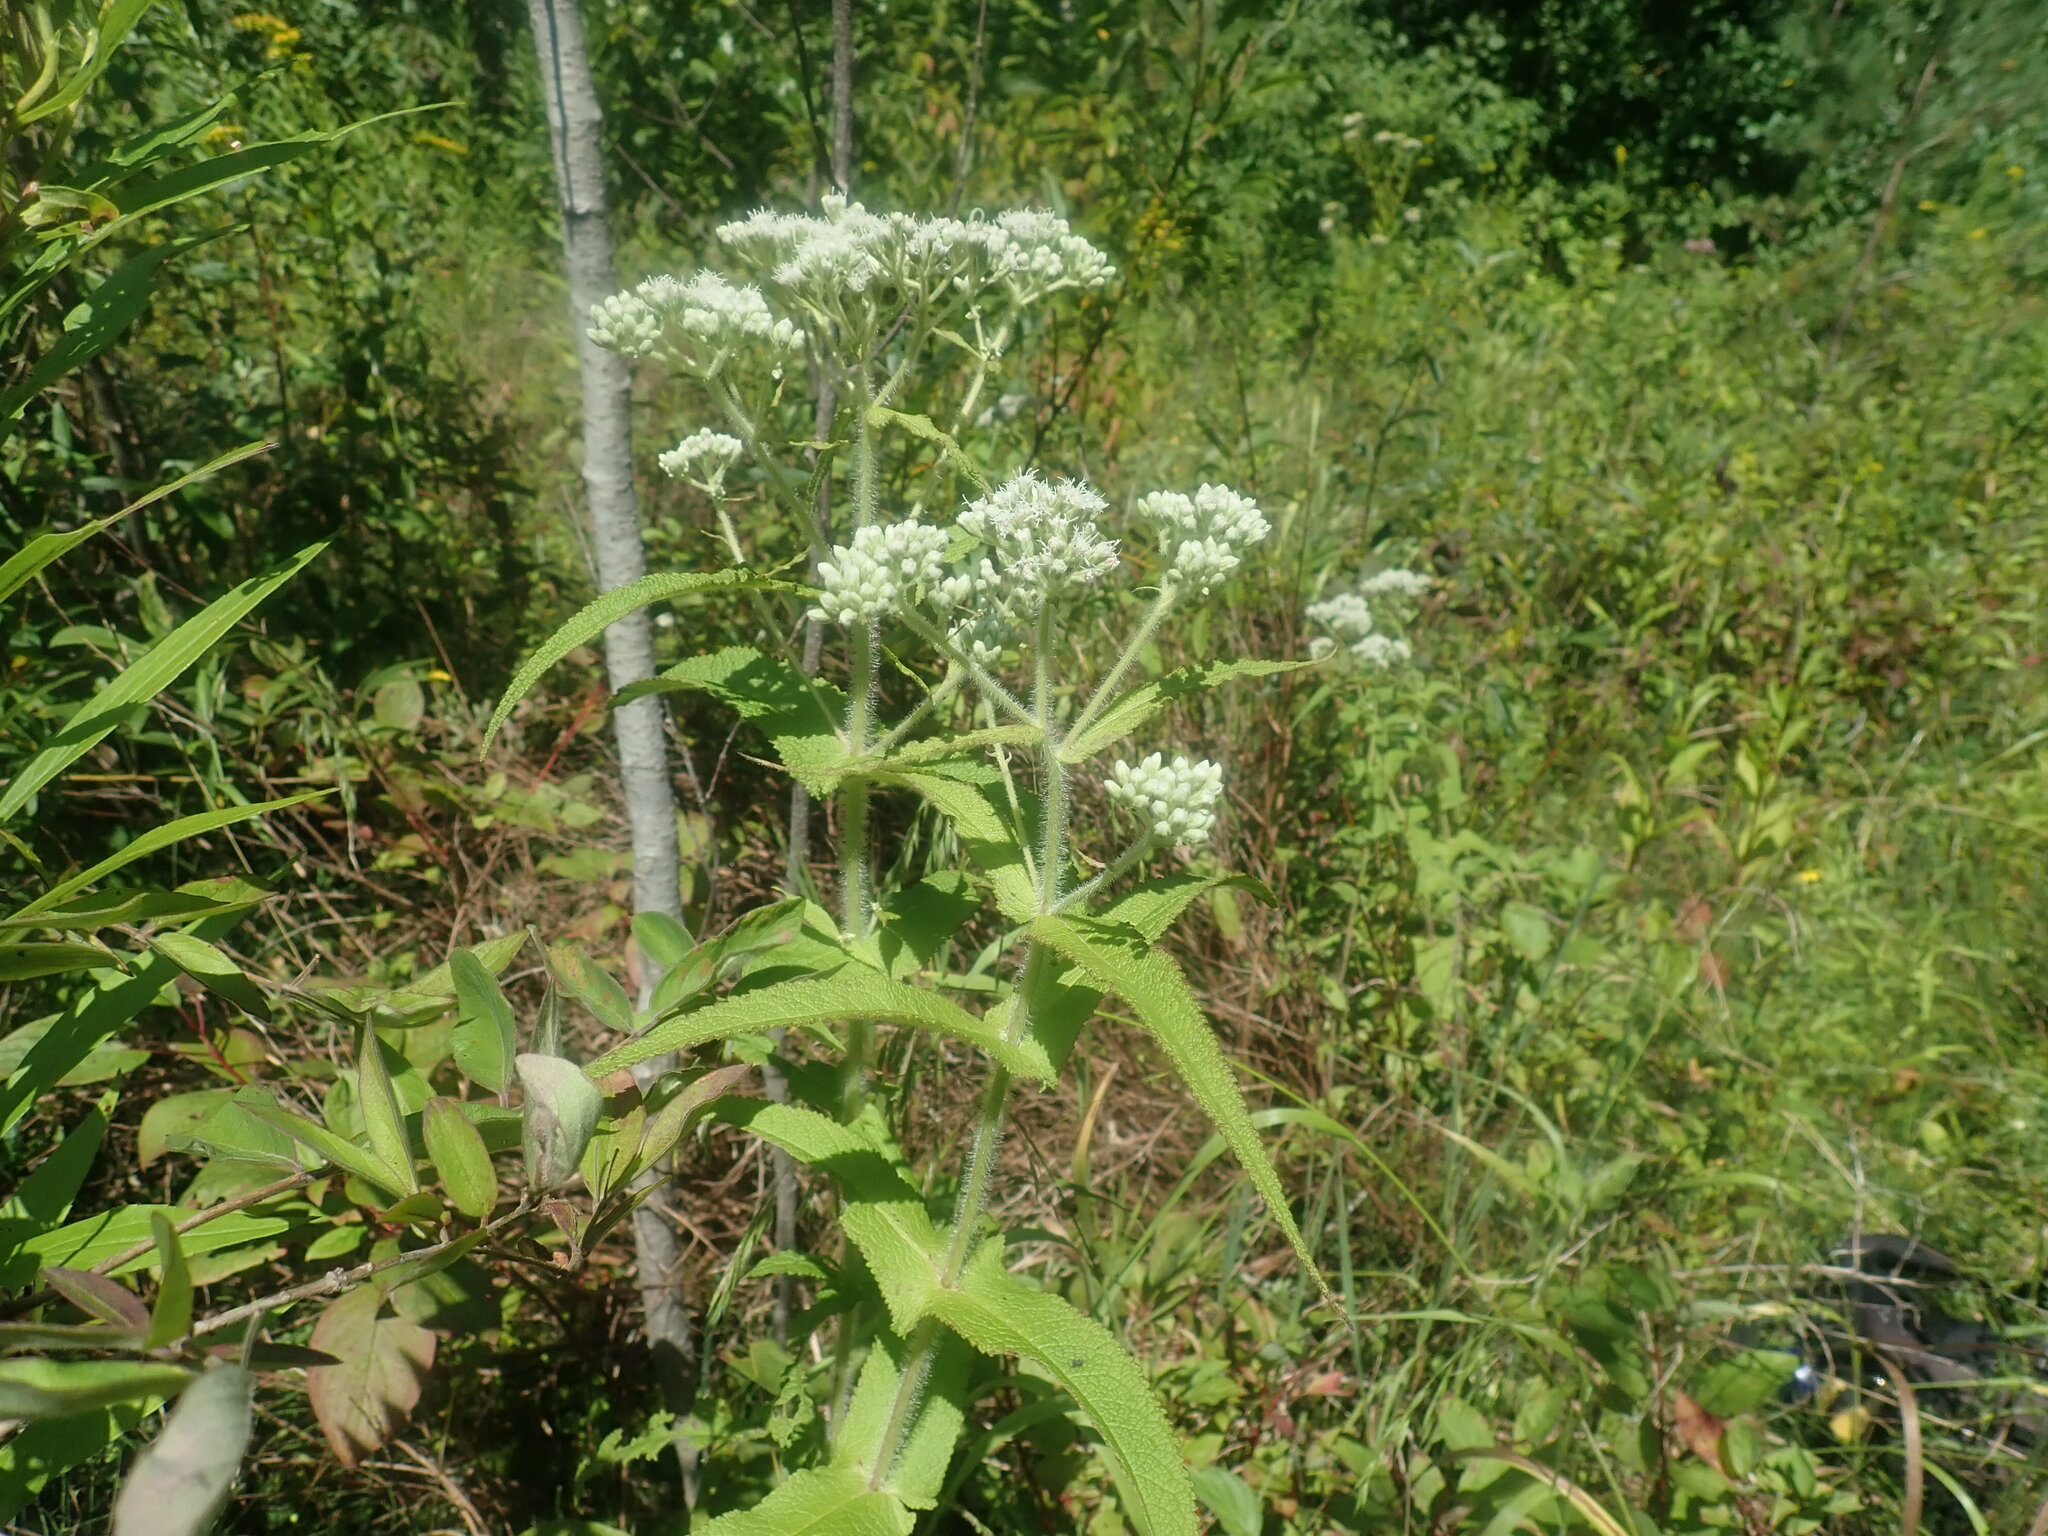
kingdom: Plantae
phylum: Tracheophyta
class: Magnoliopsida
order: Asterales
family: Asteraceae
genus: Eupatorium
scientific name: Eupatorium perfoliatum
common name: Boneset
